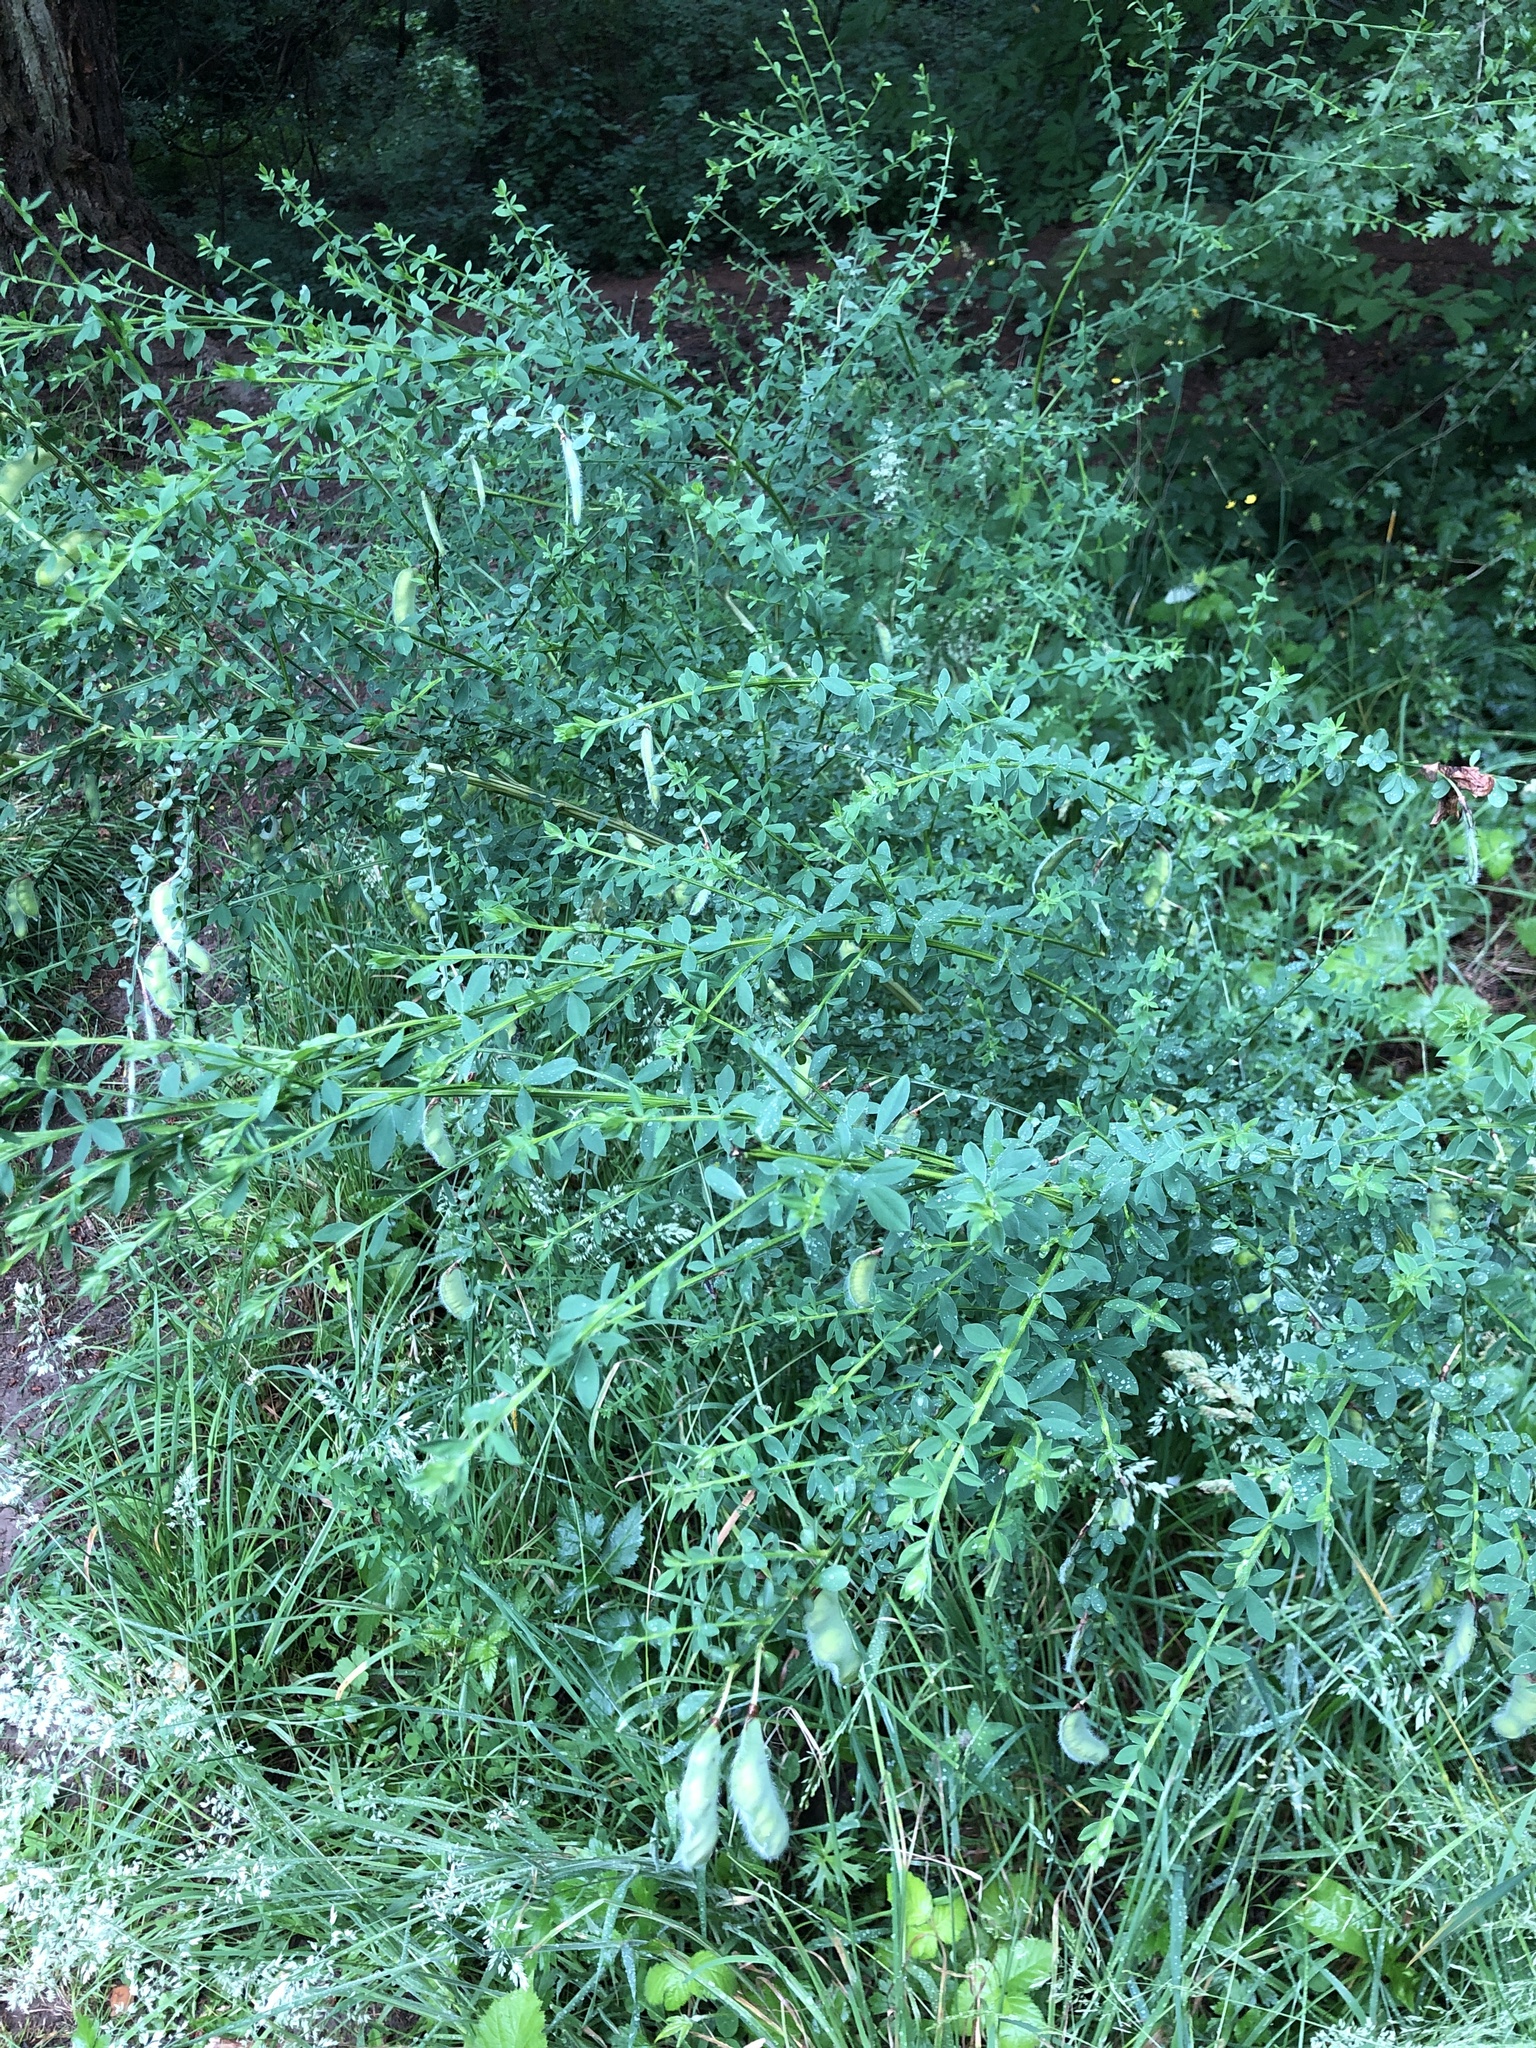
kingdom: Plantae
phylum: Tracheophyta
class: Magnoliopsida
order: Fabales
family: Fabaceae
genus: Cytisus
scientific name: Cytisus scoparius
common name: Scotch broom
